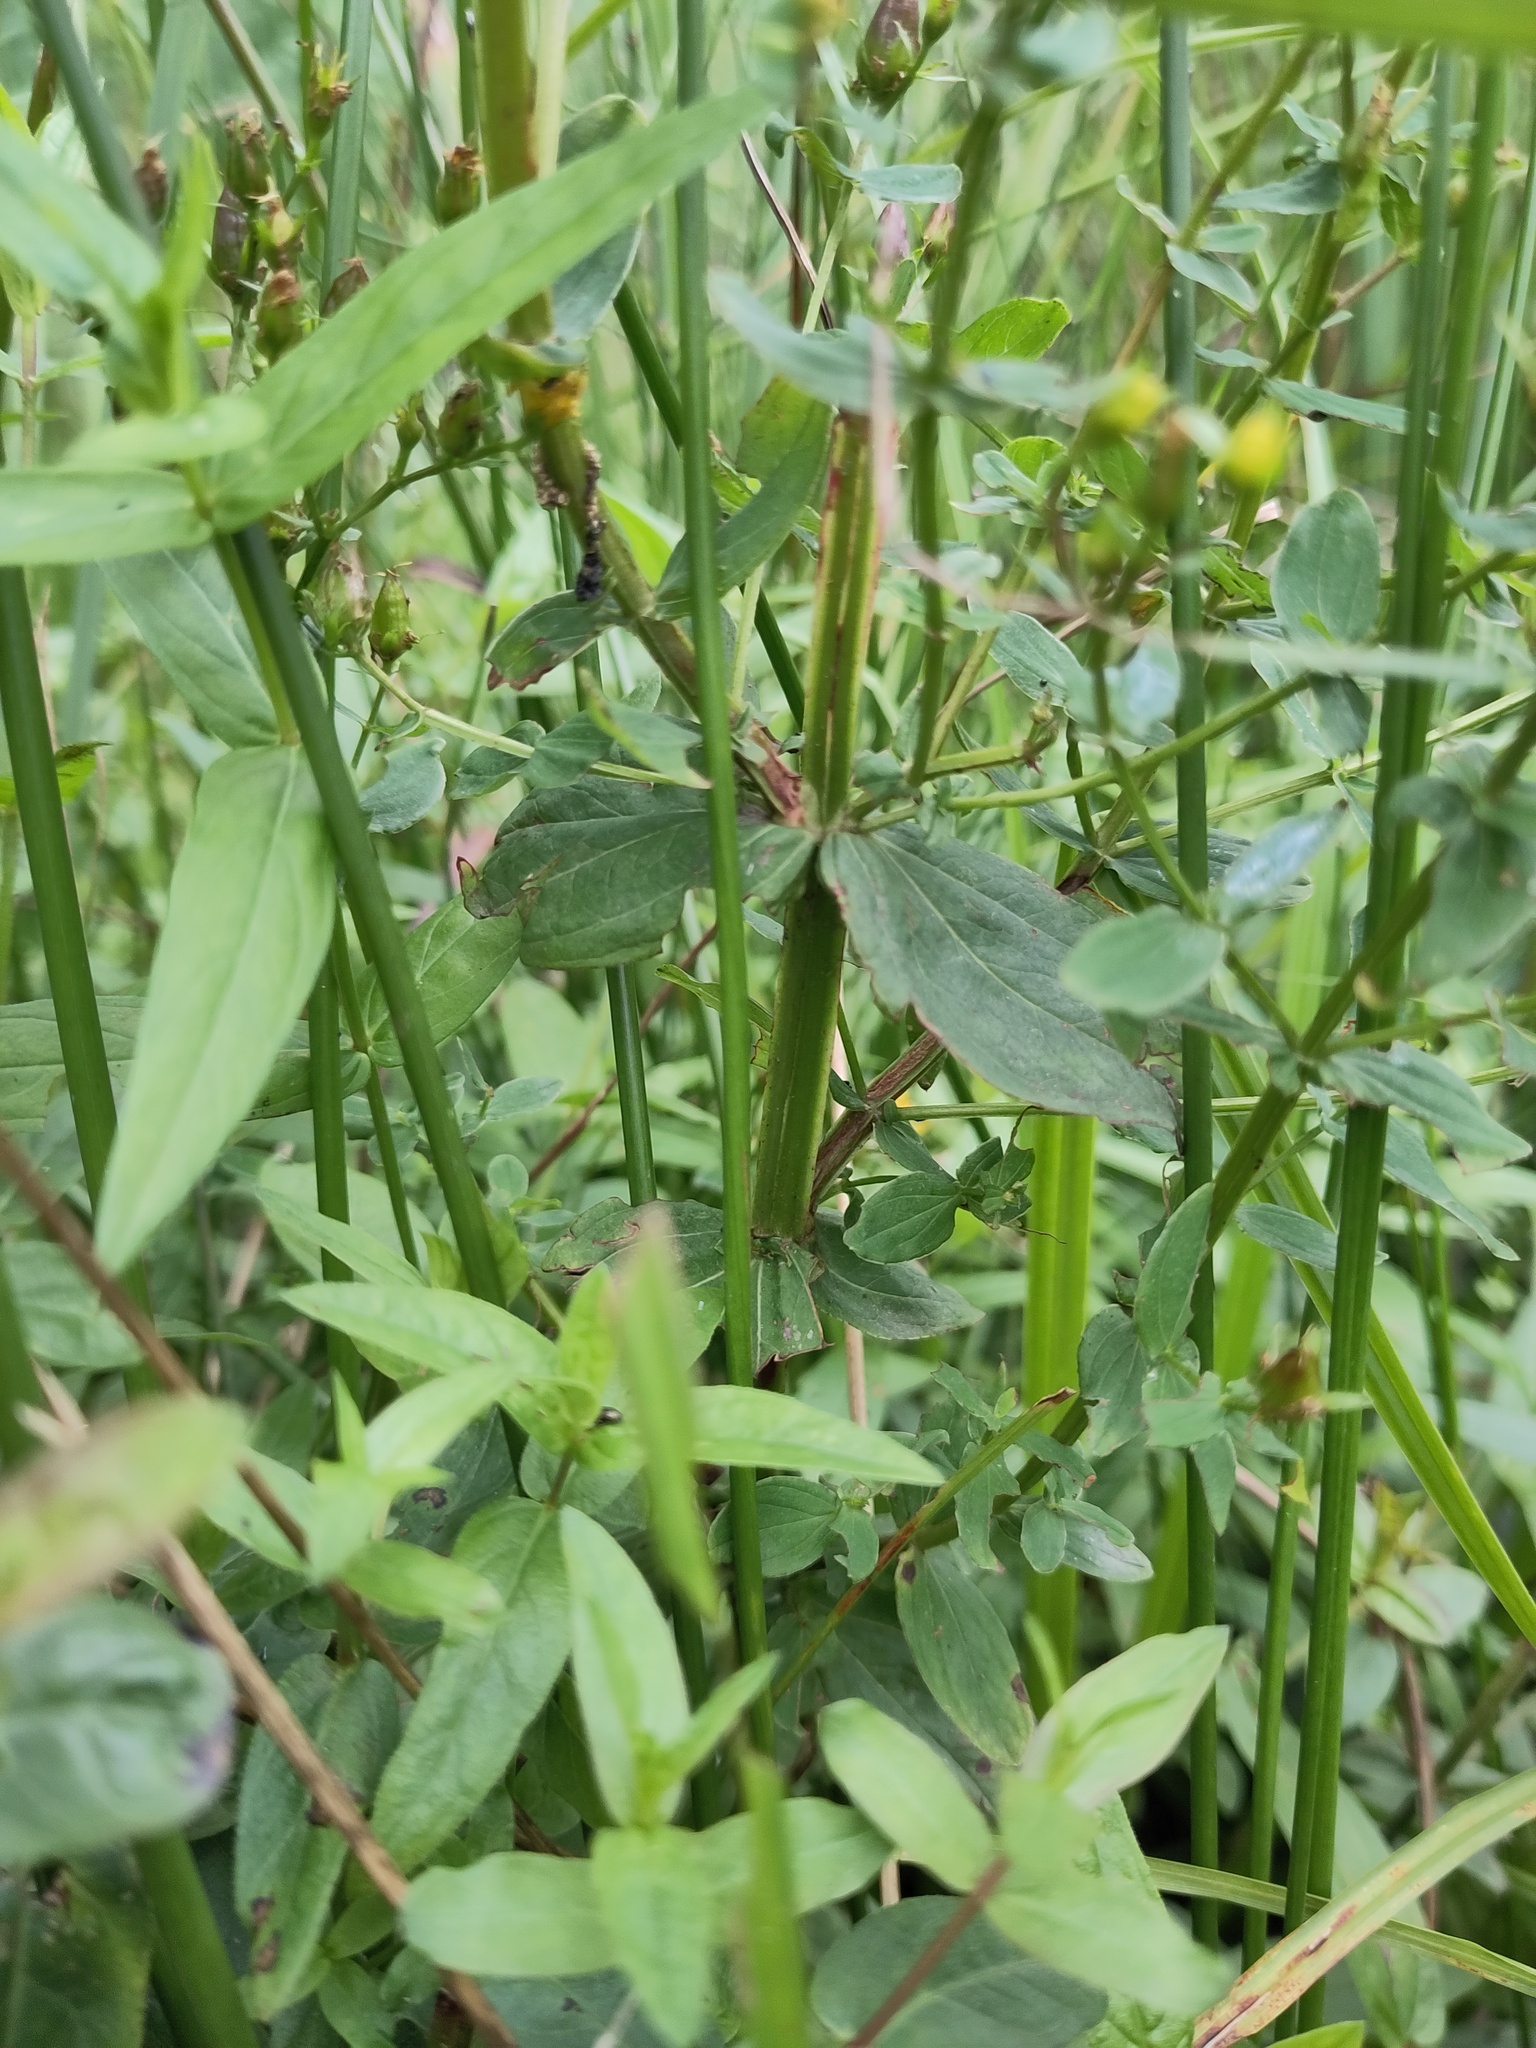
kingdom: Plantae
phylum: Tracheophyta
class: Magnoliopsida
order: Malpighiales
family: Hypericaceae
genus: Hypericum
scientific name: Hypericum tetrapterum
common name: Square-stalked st. john's-wort
